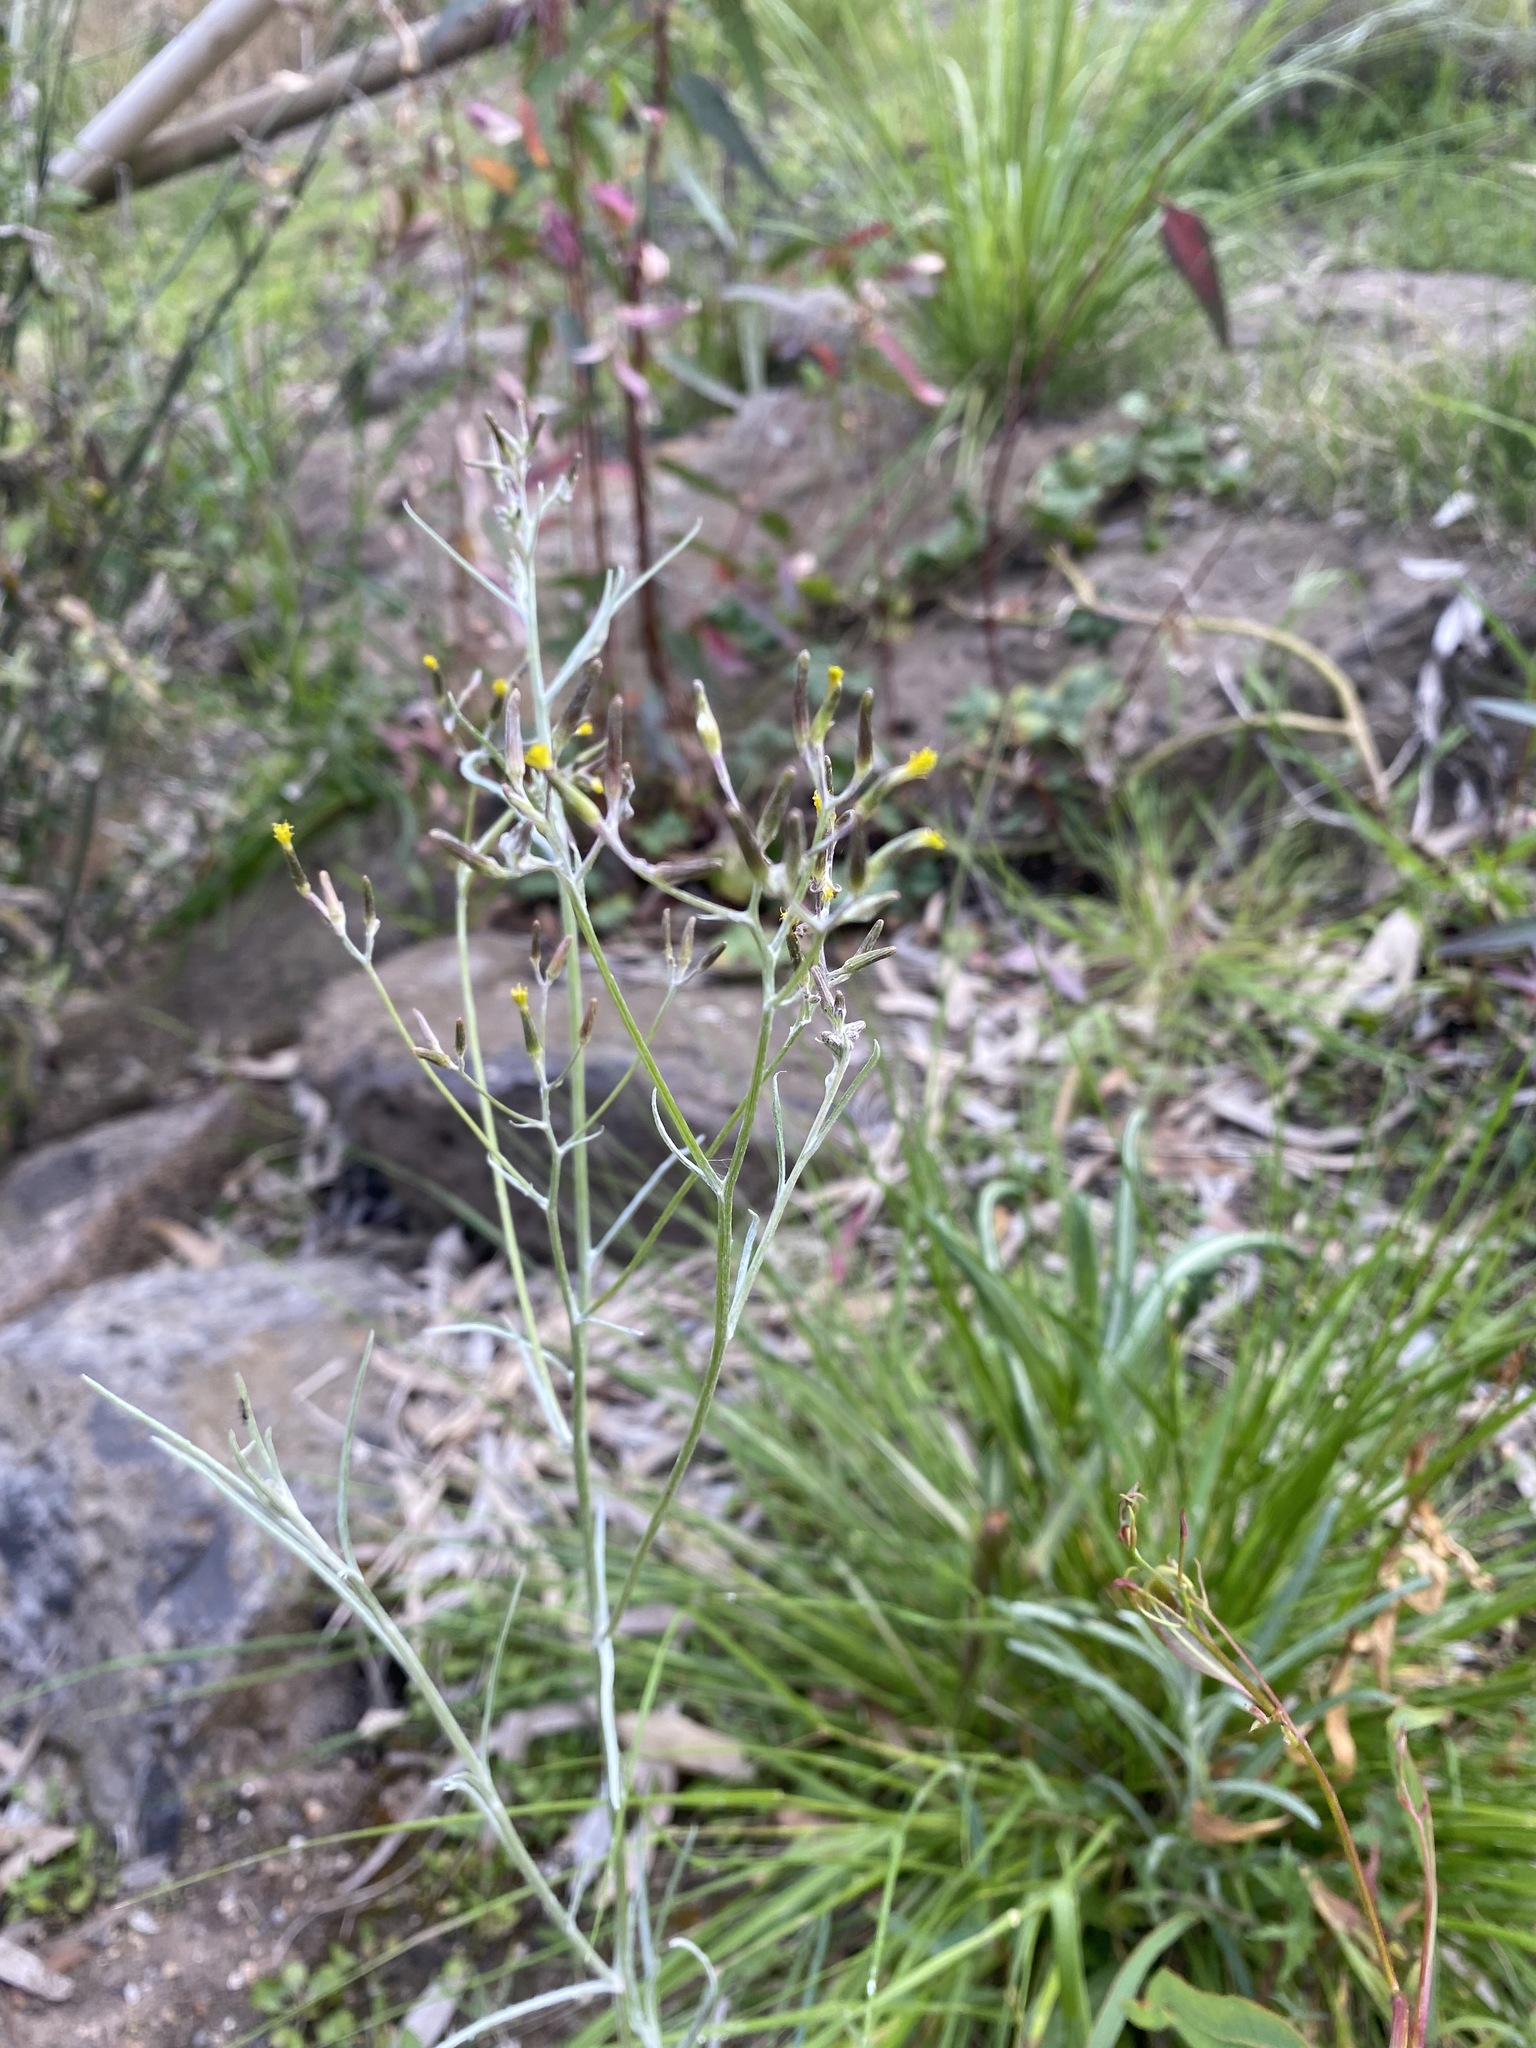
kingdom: Plantae
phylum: Tracheophyta
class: Magnoliopsida
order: Asterales
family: Asteraceae
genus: Senecio
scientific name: Senecio quadridentatus
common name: Cotton fireweed
